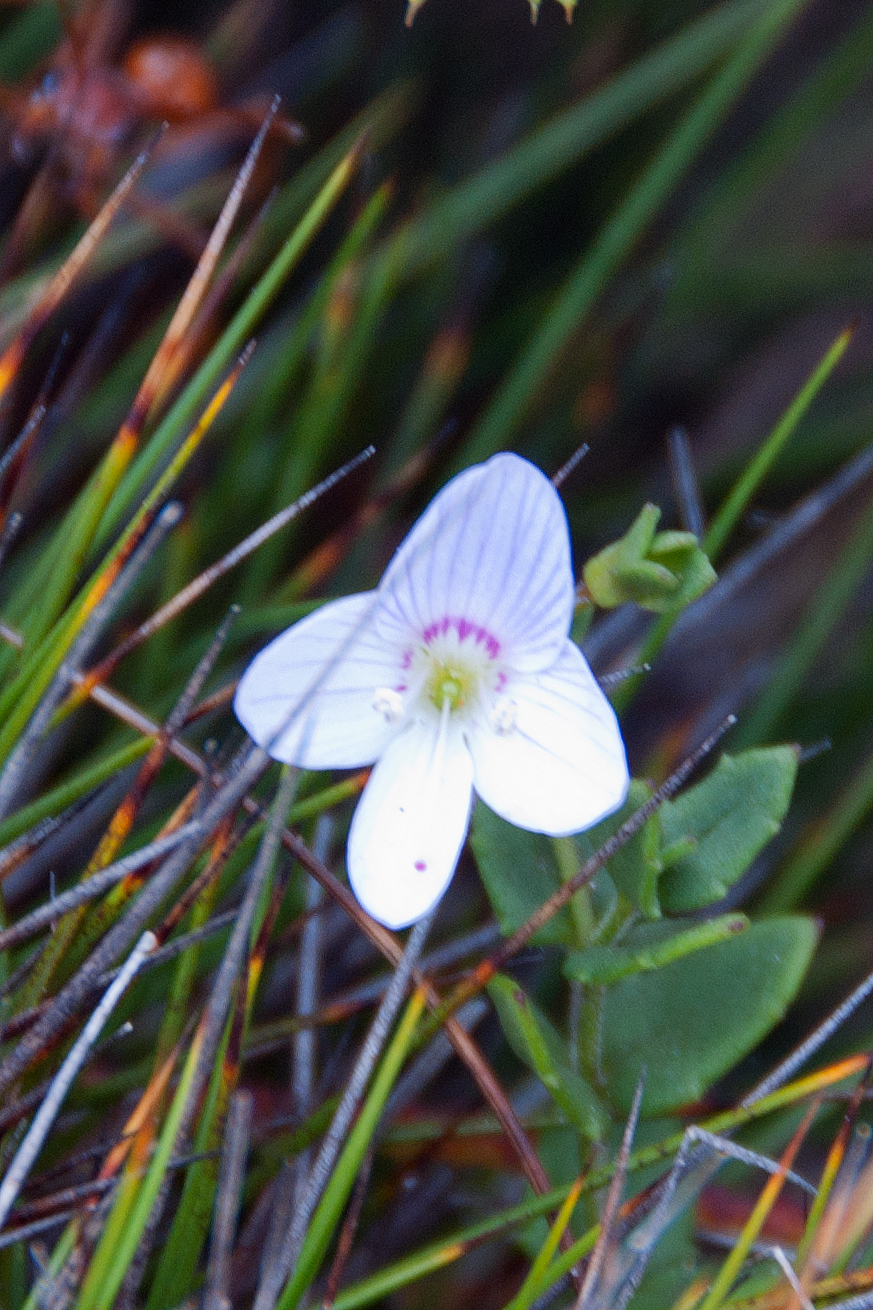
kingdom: Plantae
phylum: Tracheophyta
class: Magnoliopsida
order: Lamiales
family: Plantaginaceae
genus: Veronica
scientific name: Veronica hillebrandii
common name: Coast speedwell
